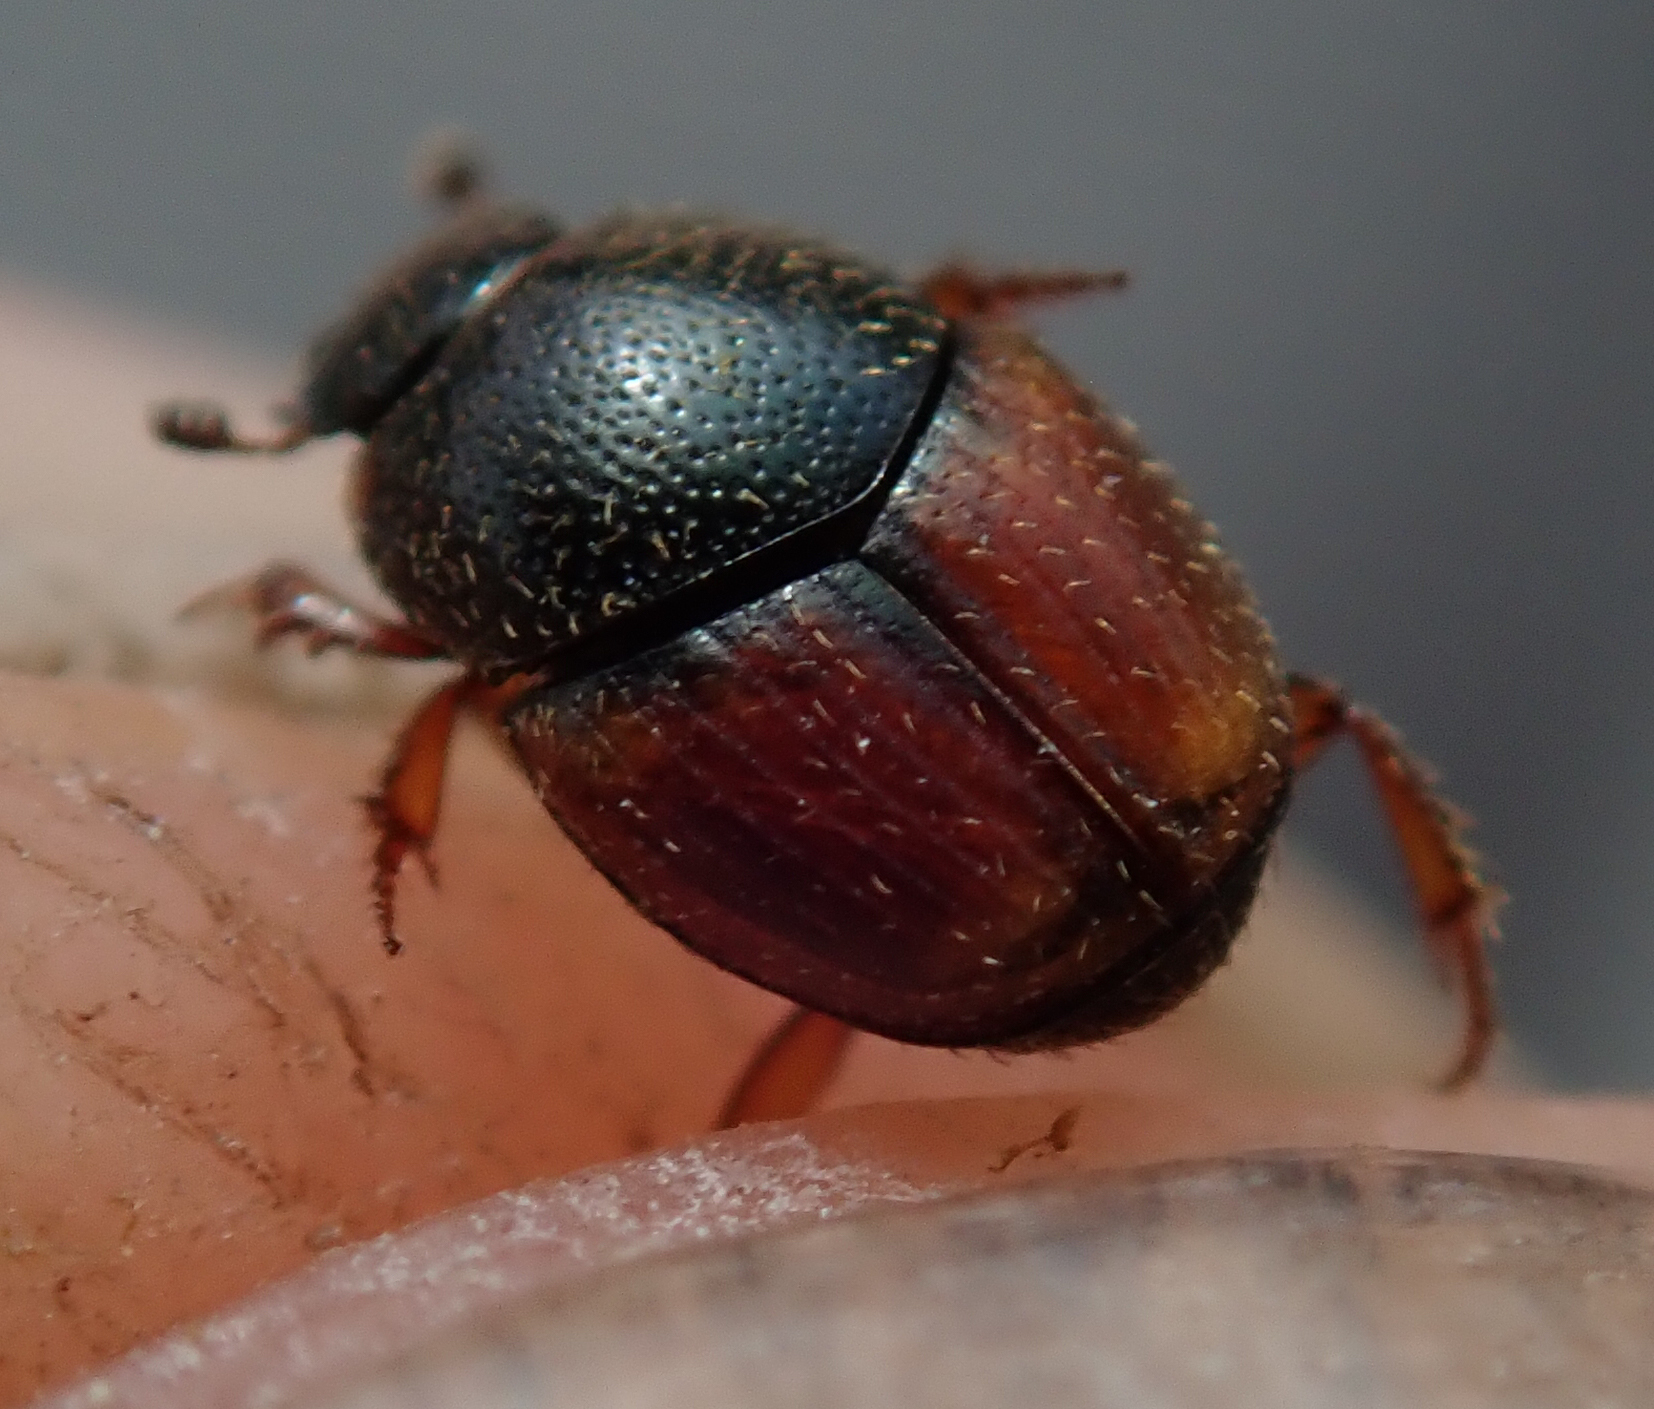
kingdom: Animalia
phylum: Arthropoda
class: Insecta
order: Coleoptera
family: Scarabaeidae
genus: Onthophagus
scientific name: Onthophagus pullus
